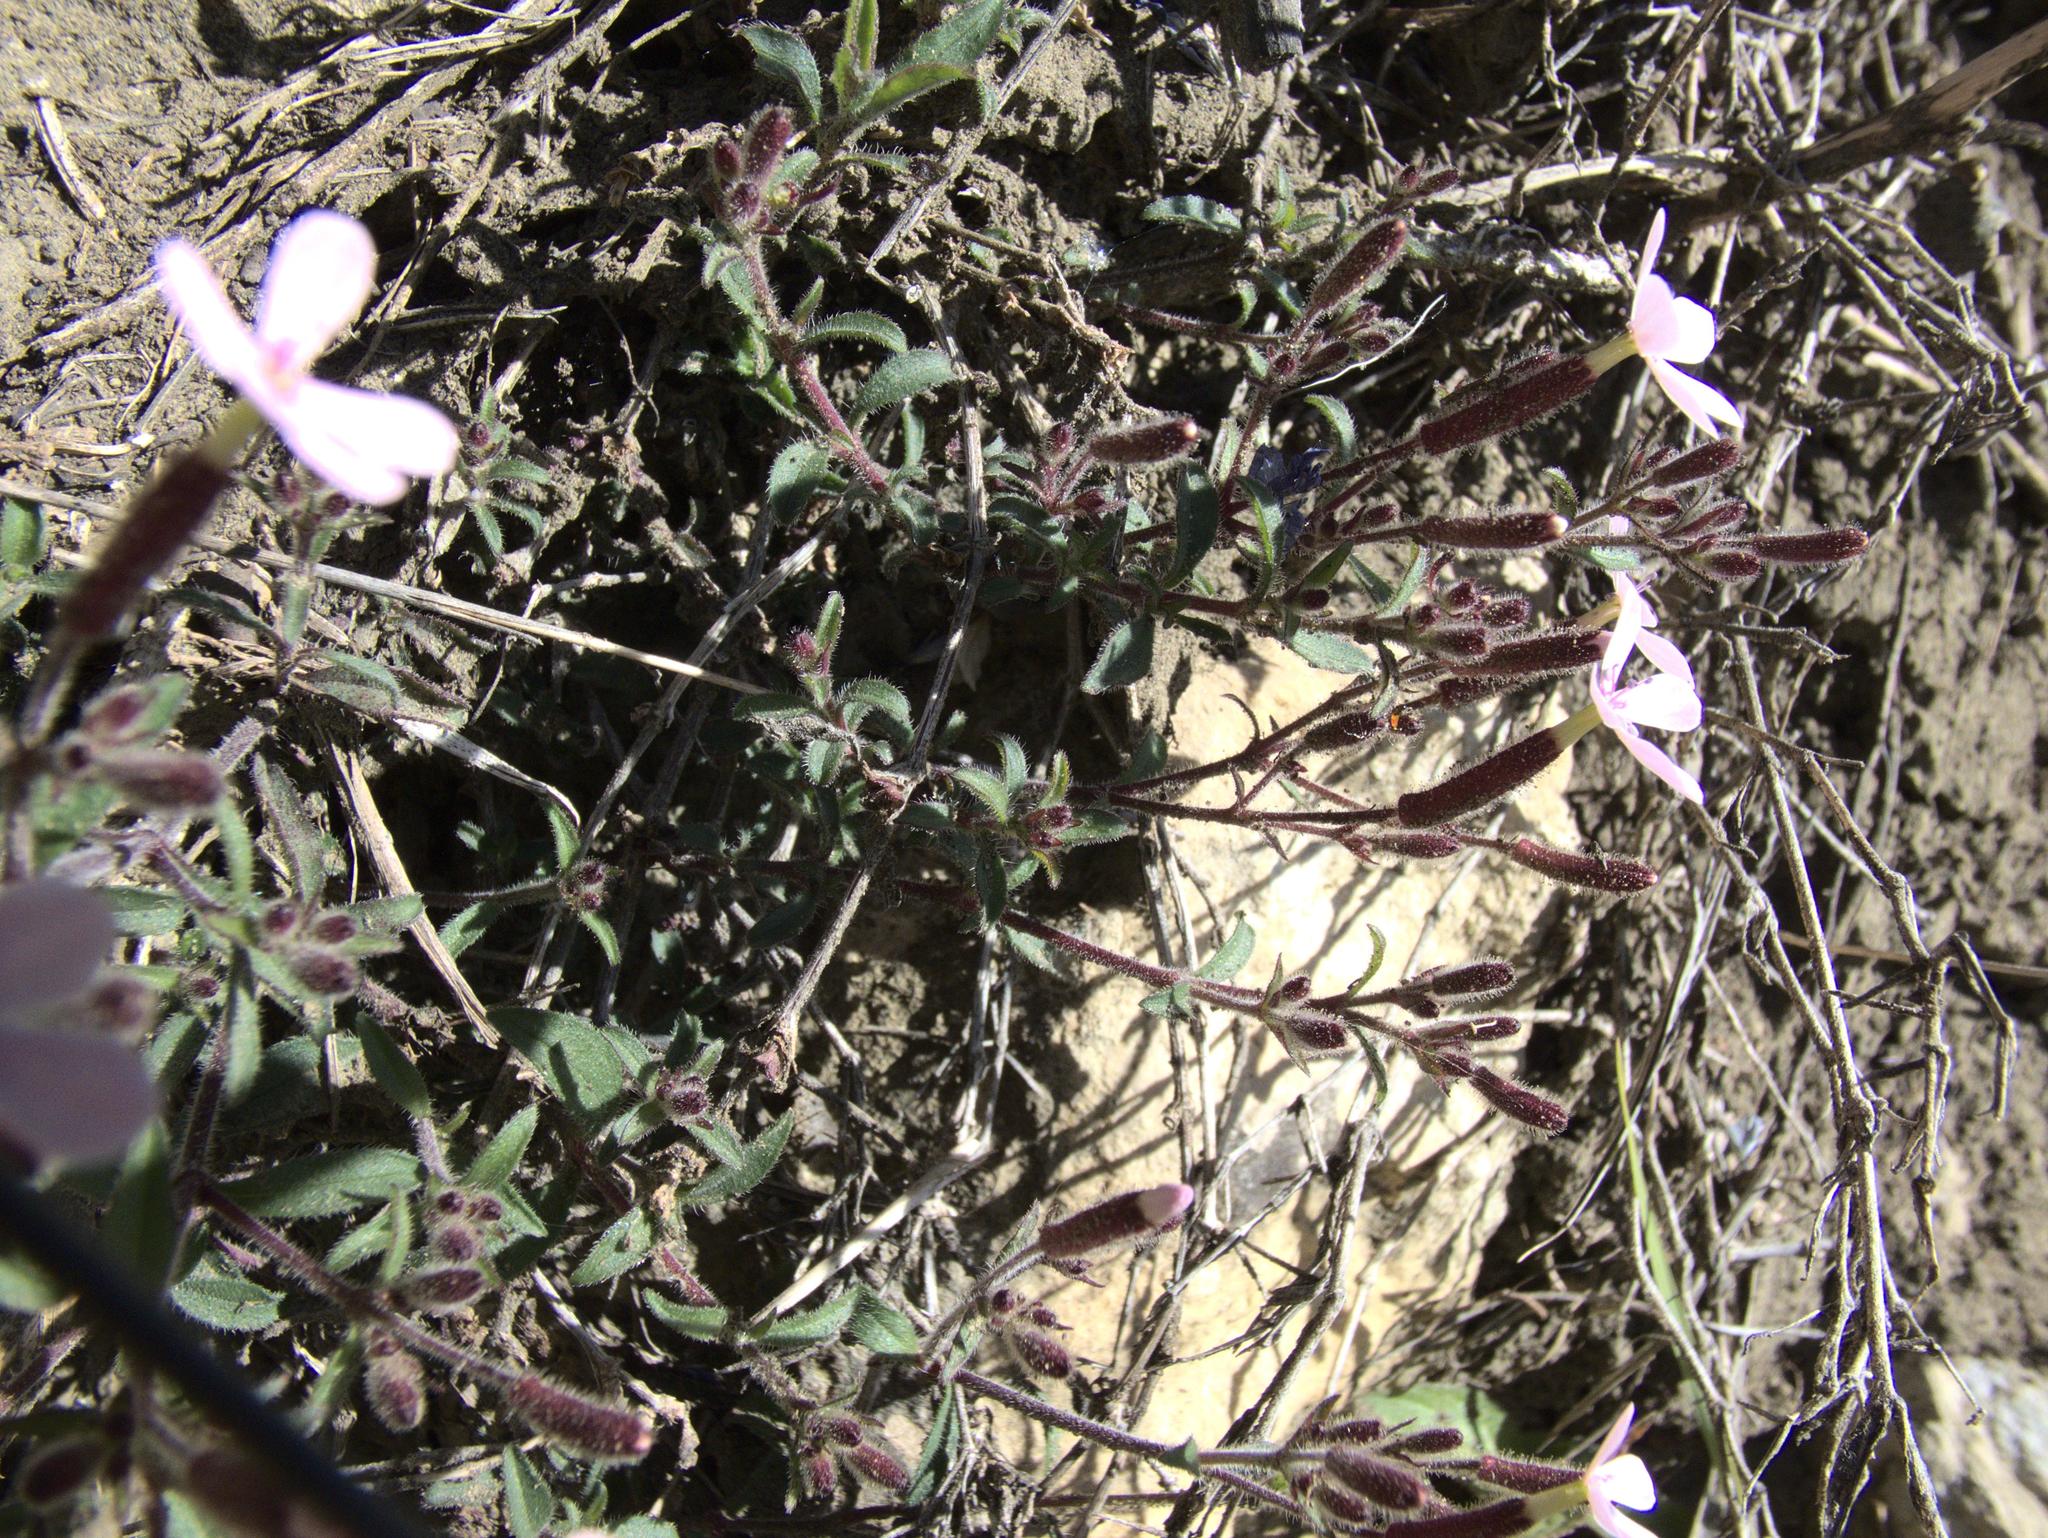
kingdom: Plantae
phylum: Tracheophyta
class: Magnoliopsida
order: Caryophyllales
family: Caryophyllaceae
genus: Saponaria
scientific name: Saponaria ocymoides
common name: Rock soapwort
